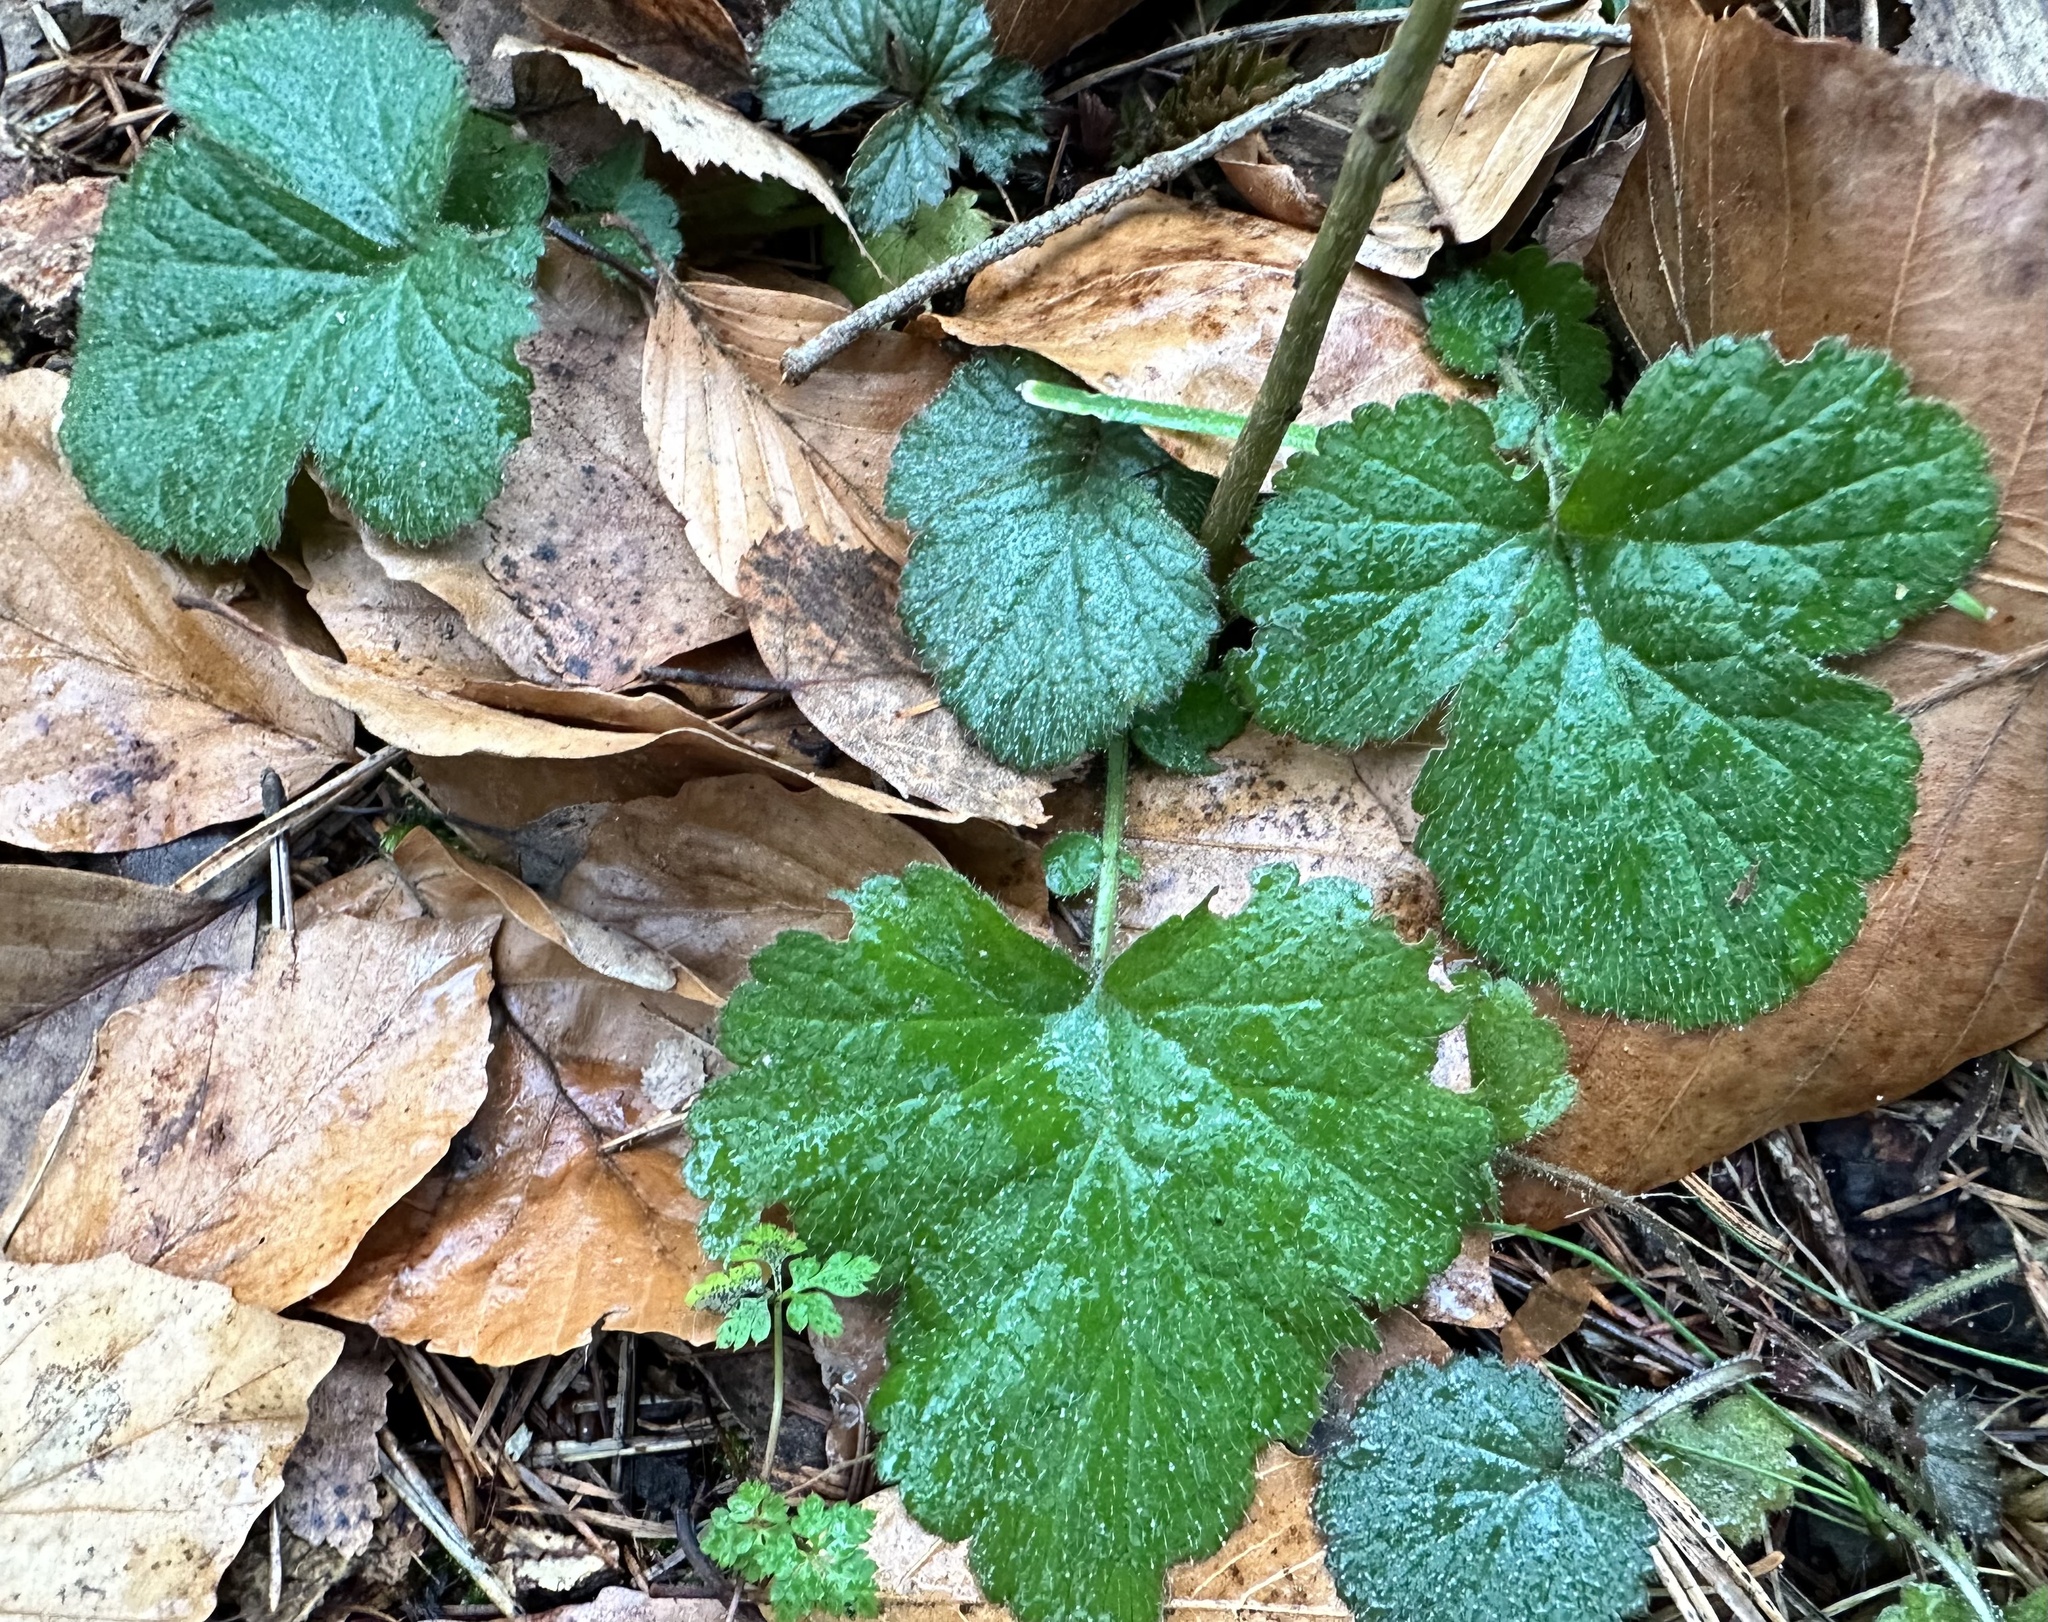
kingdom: Plantae
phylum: Tracheophyta
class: Magnoliopsida
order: Rosales
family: Rosaceae
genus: Geum
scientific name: Geum urbanum
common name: Wood avens
